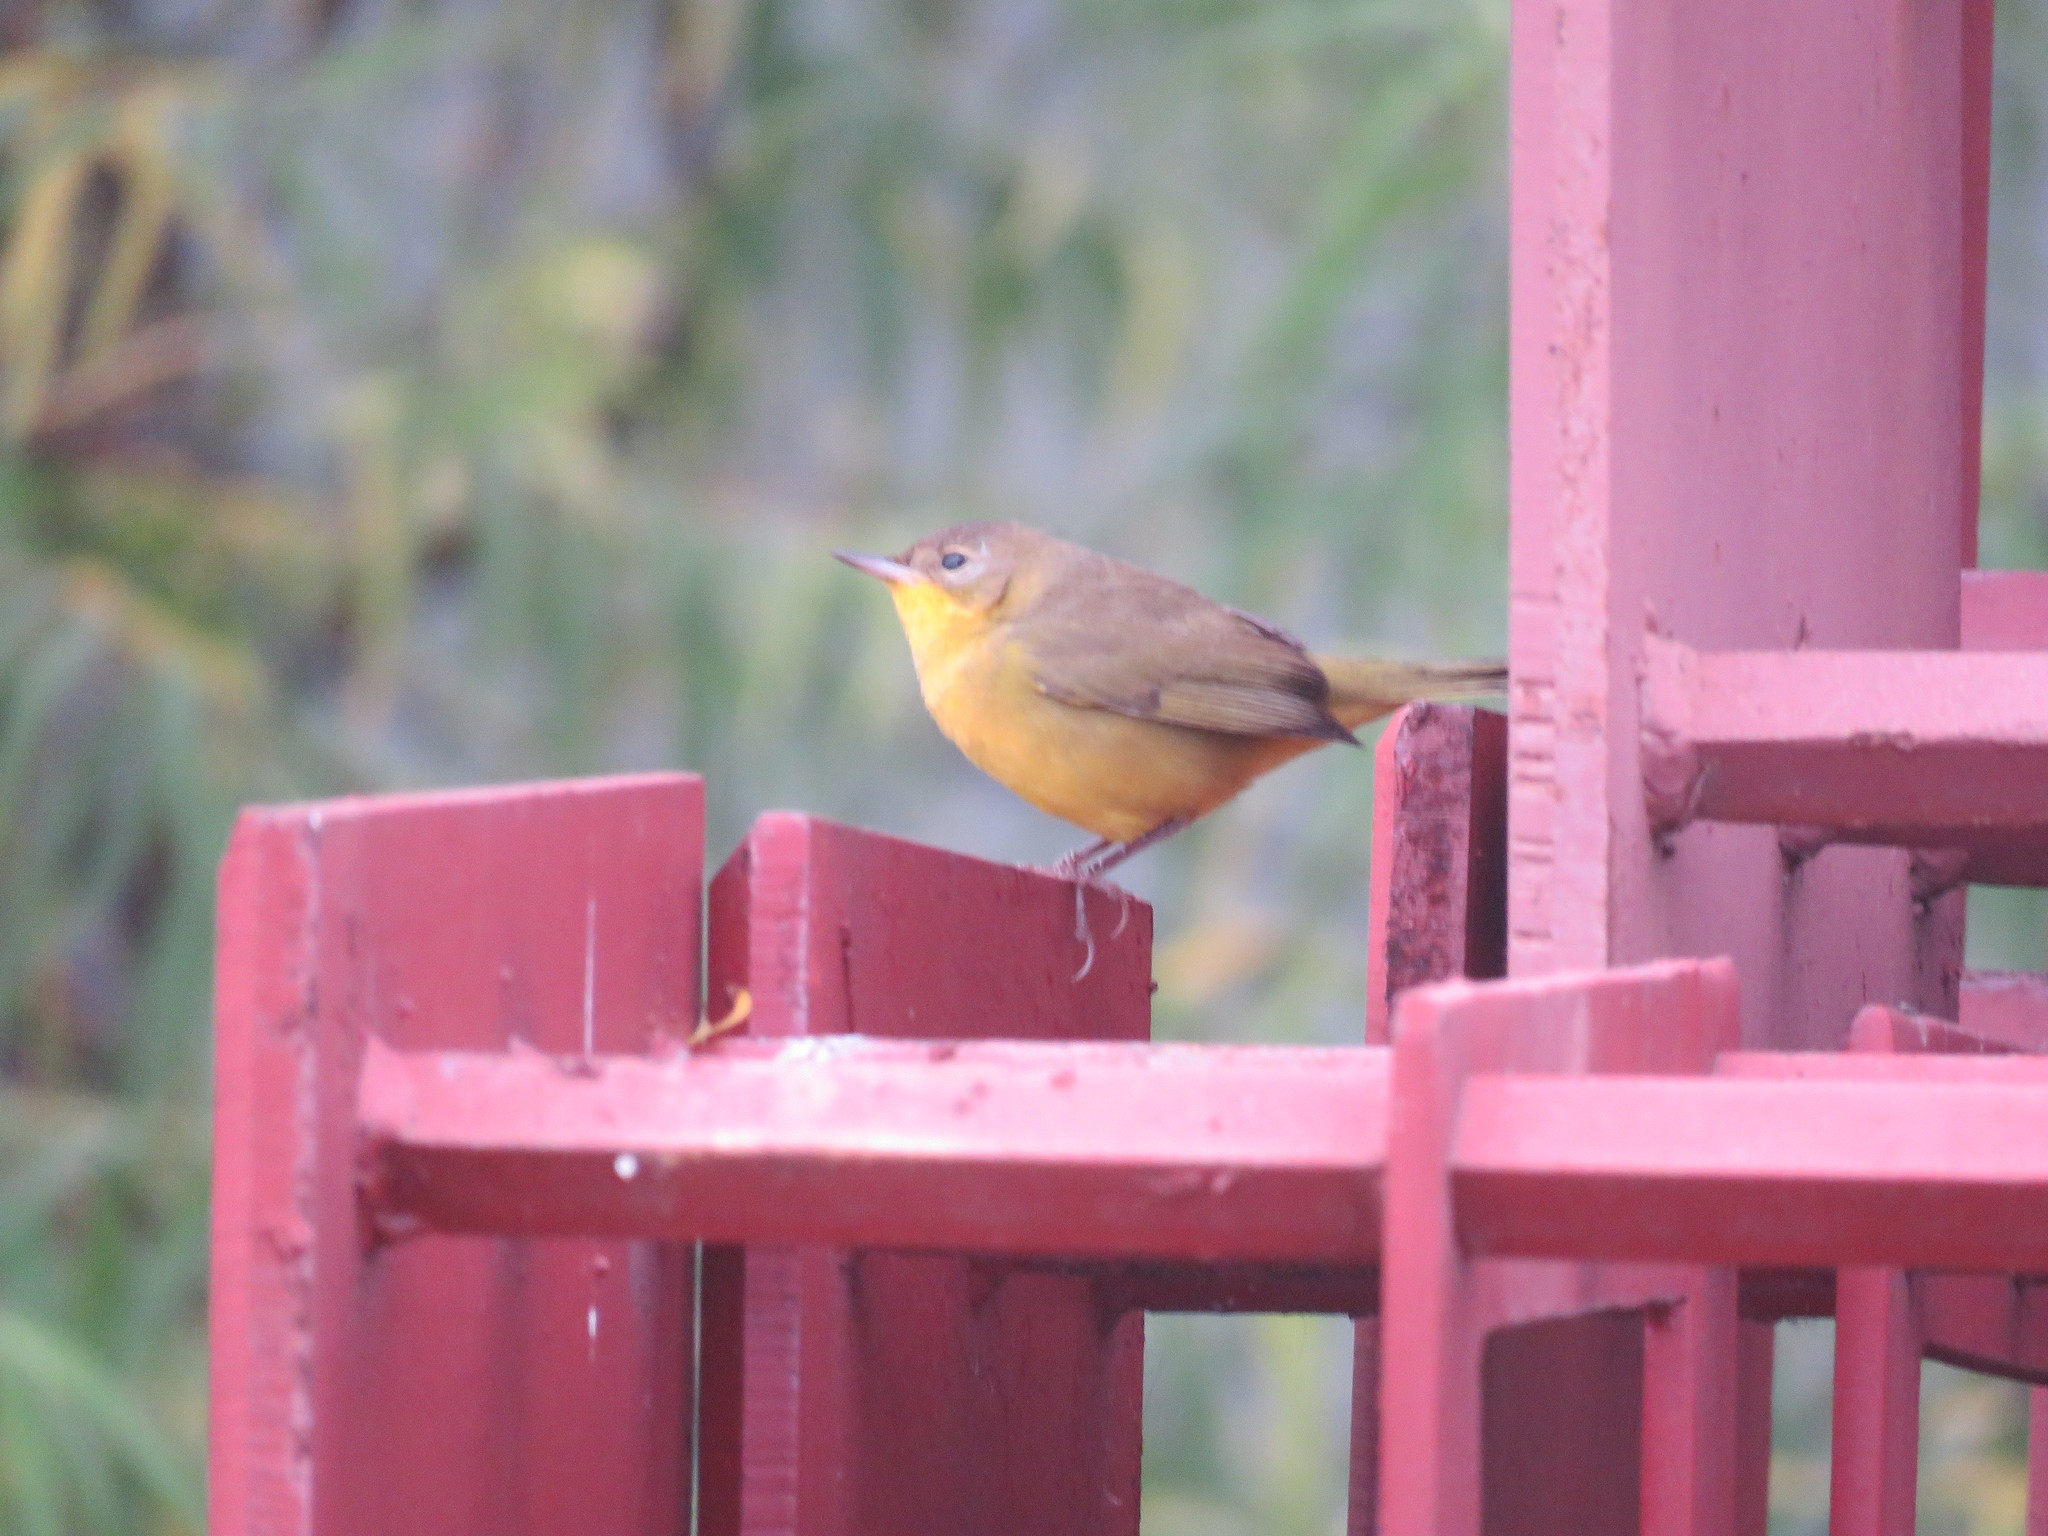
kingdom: Animalia
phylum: Chordata
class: Aves
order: Passeriformes
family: Parulidae
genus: Geothlypis
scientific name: Geothlypis velata
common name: Southern yellowthroat
